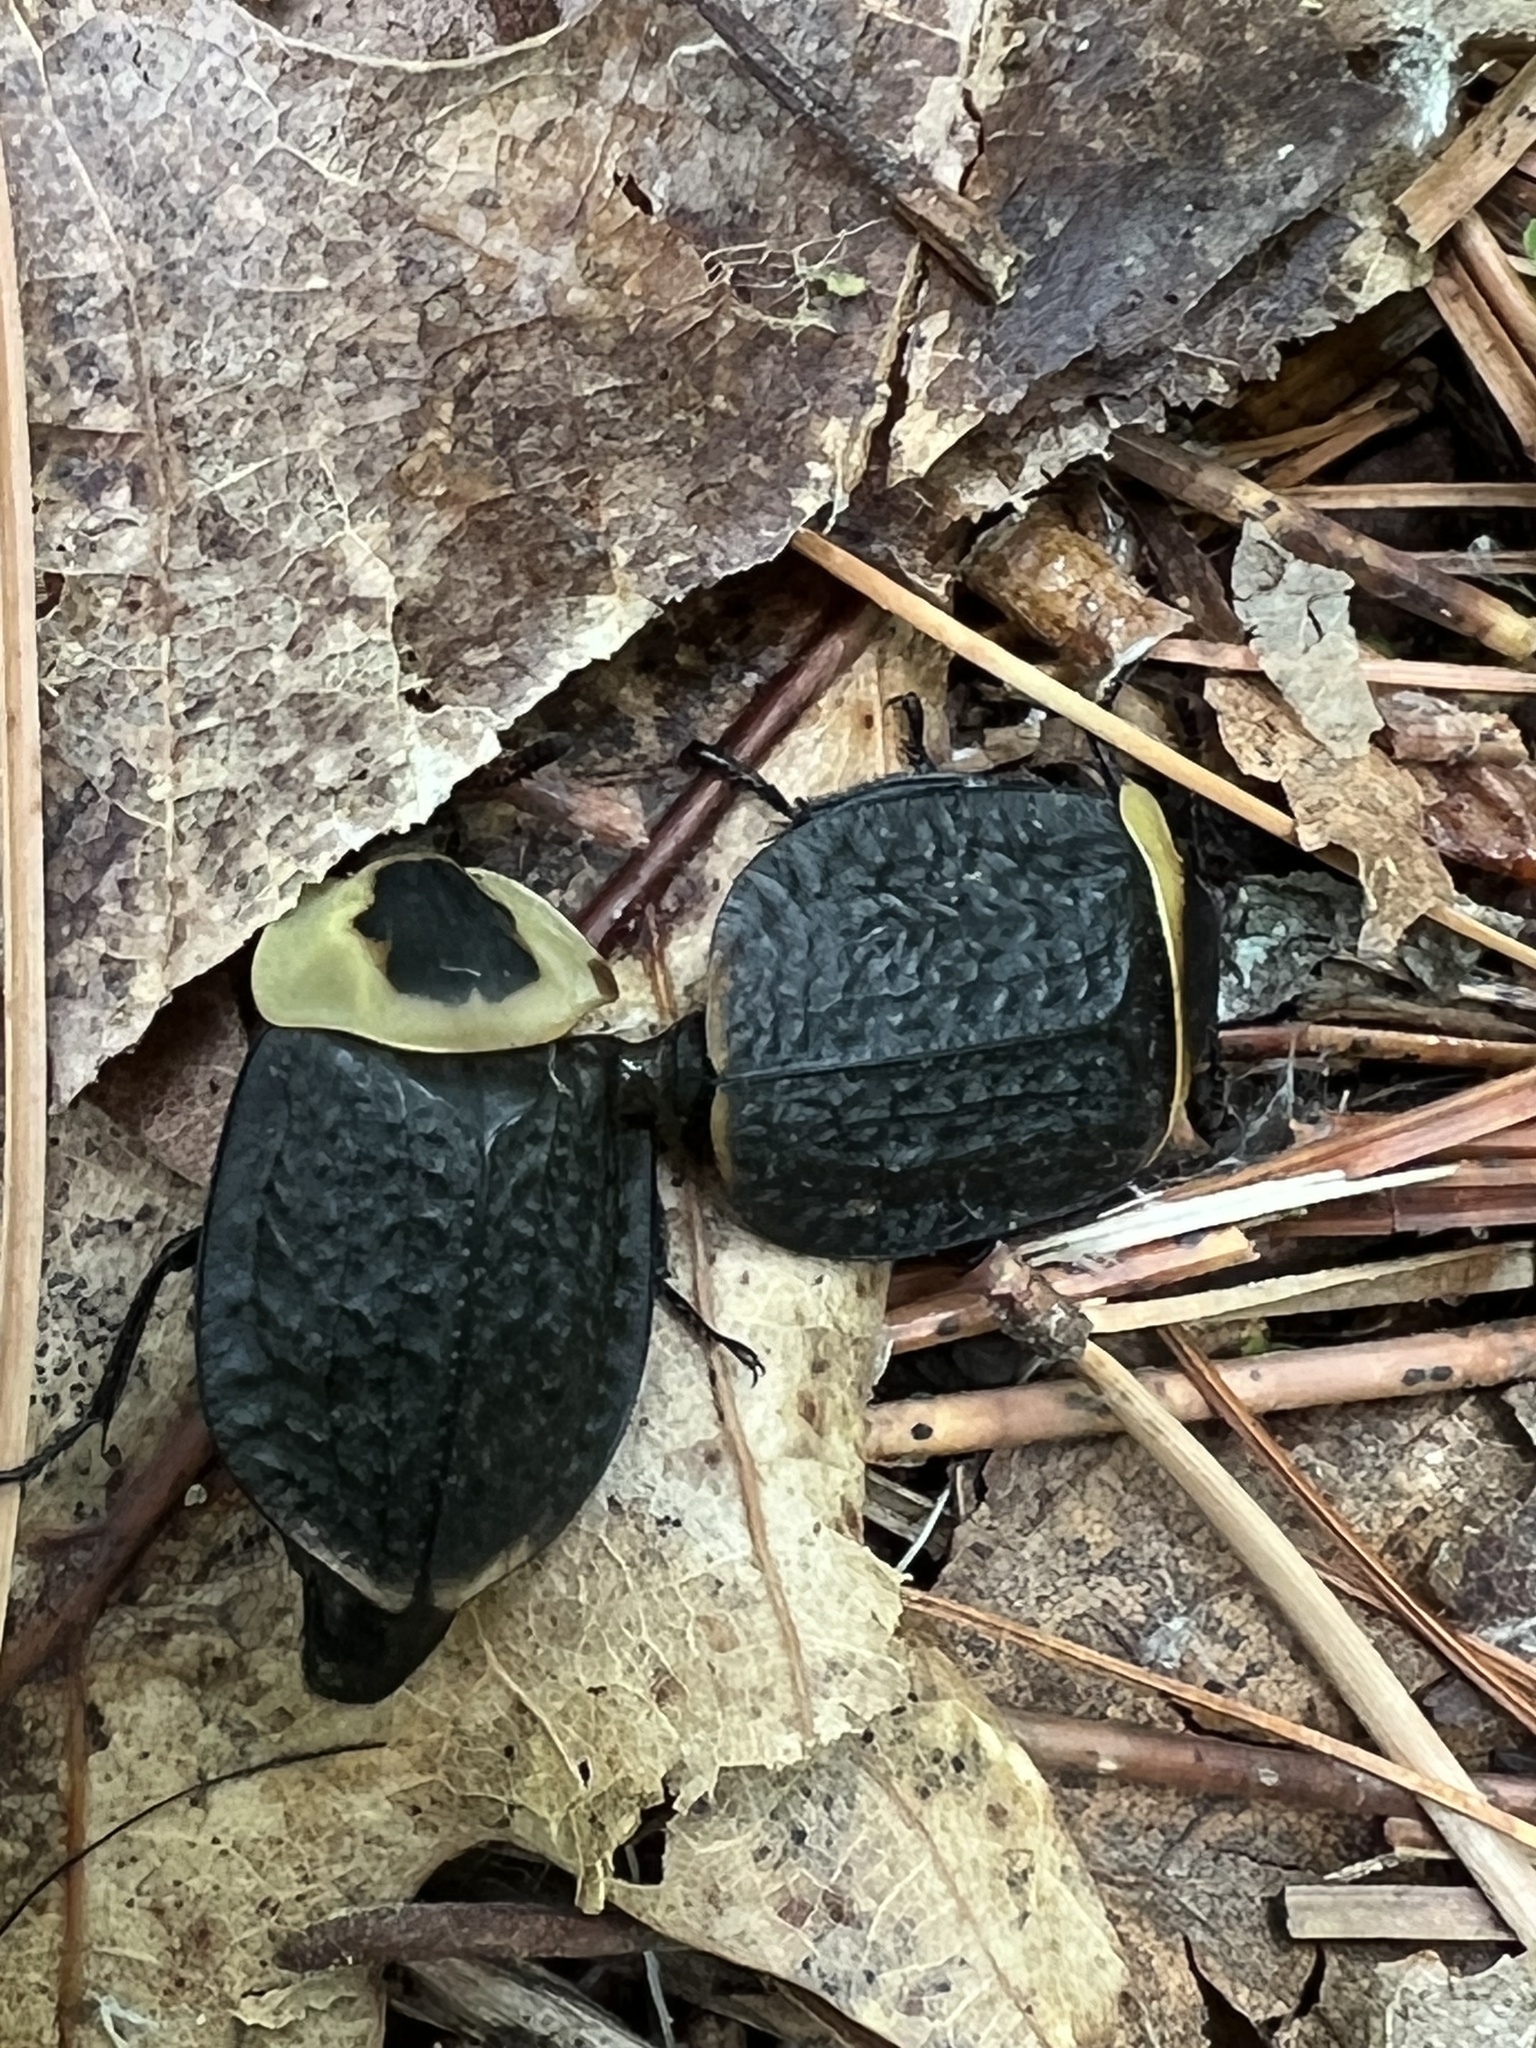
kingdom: Animalia
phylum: Arthropoda
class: Insecta
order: Coleoptera
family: Staphylinidae
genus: Necrophila
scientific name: Necrophila americana
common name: American carrion beetle
